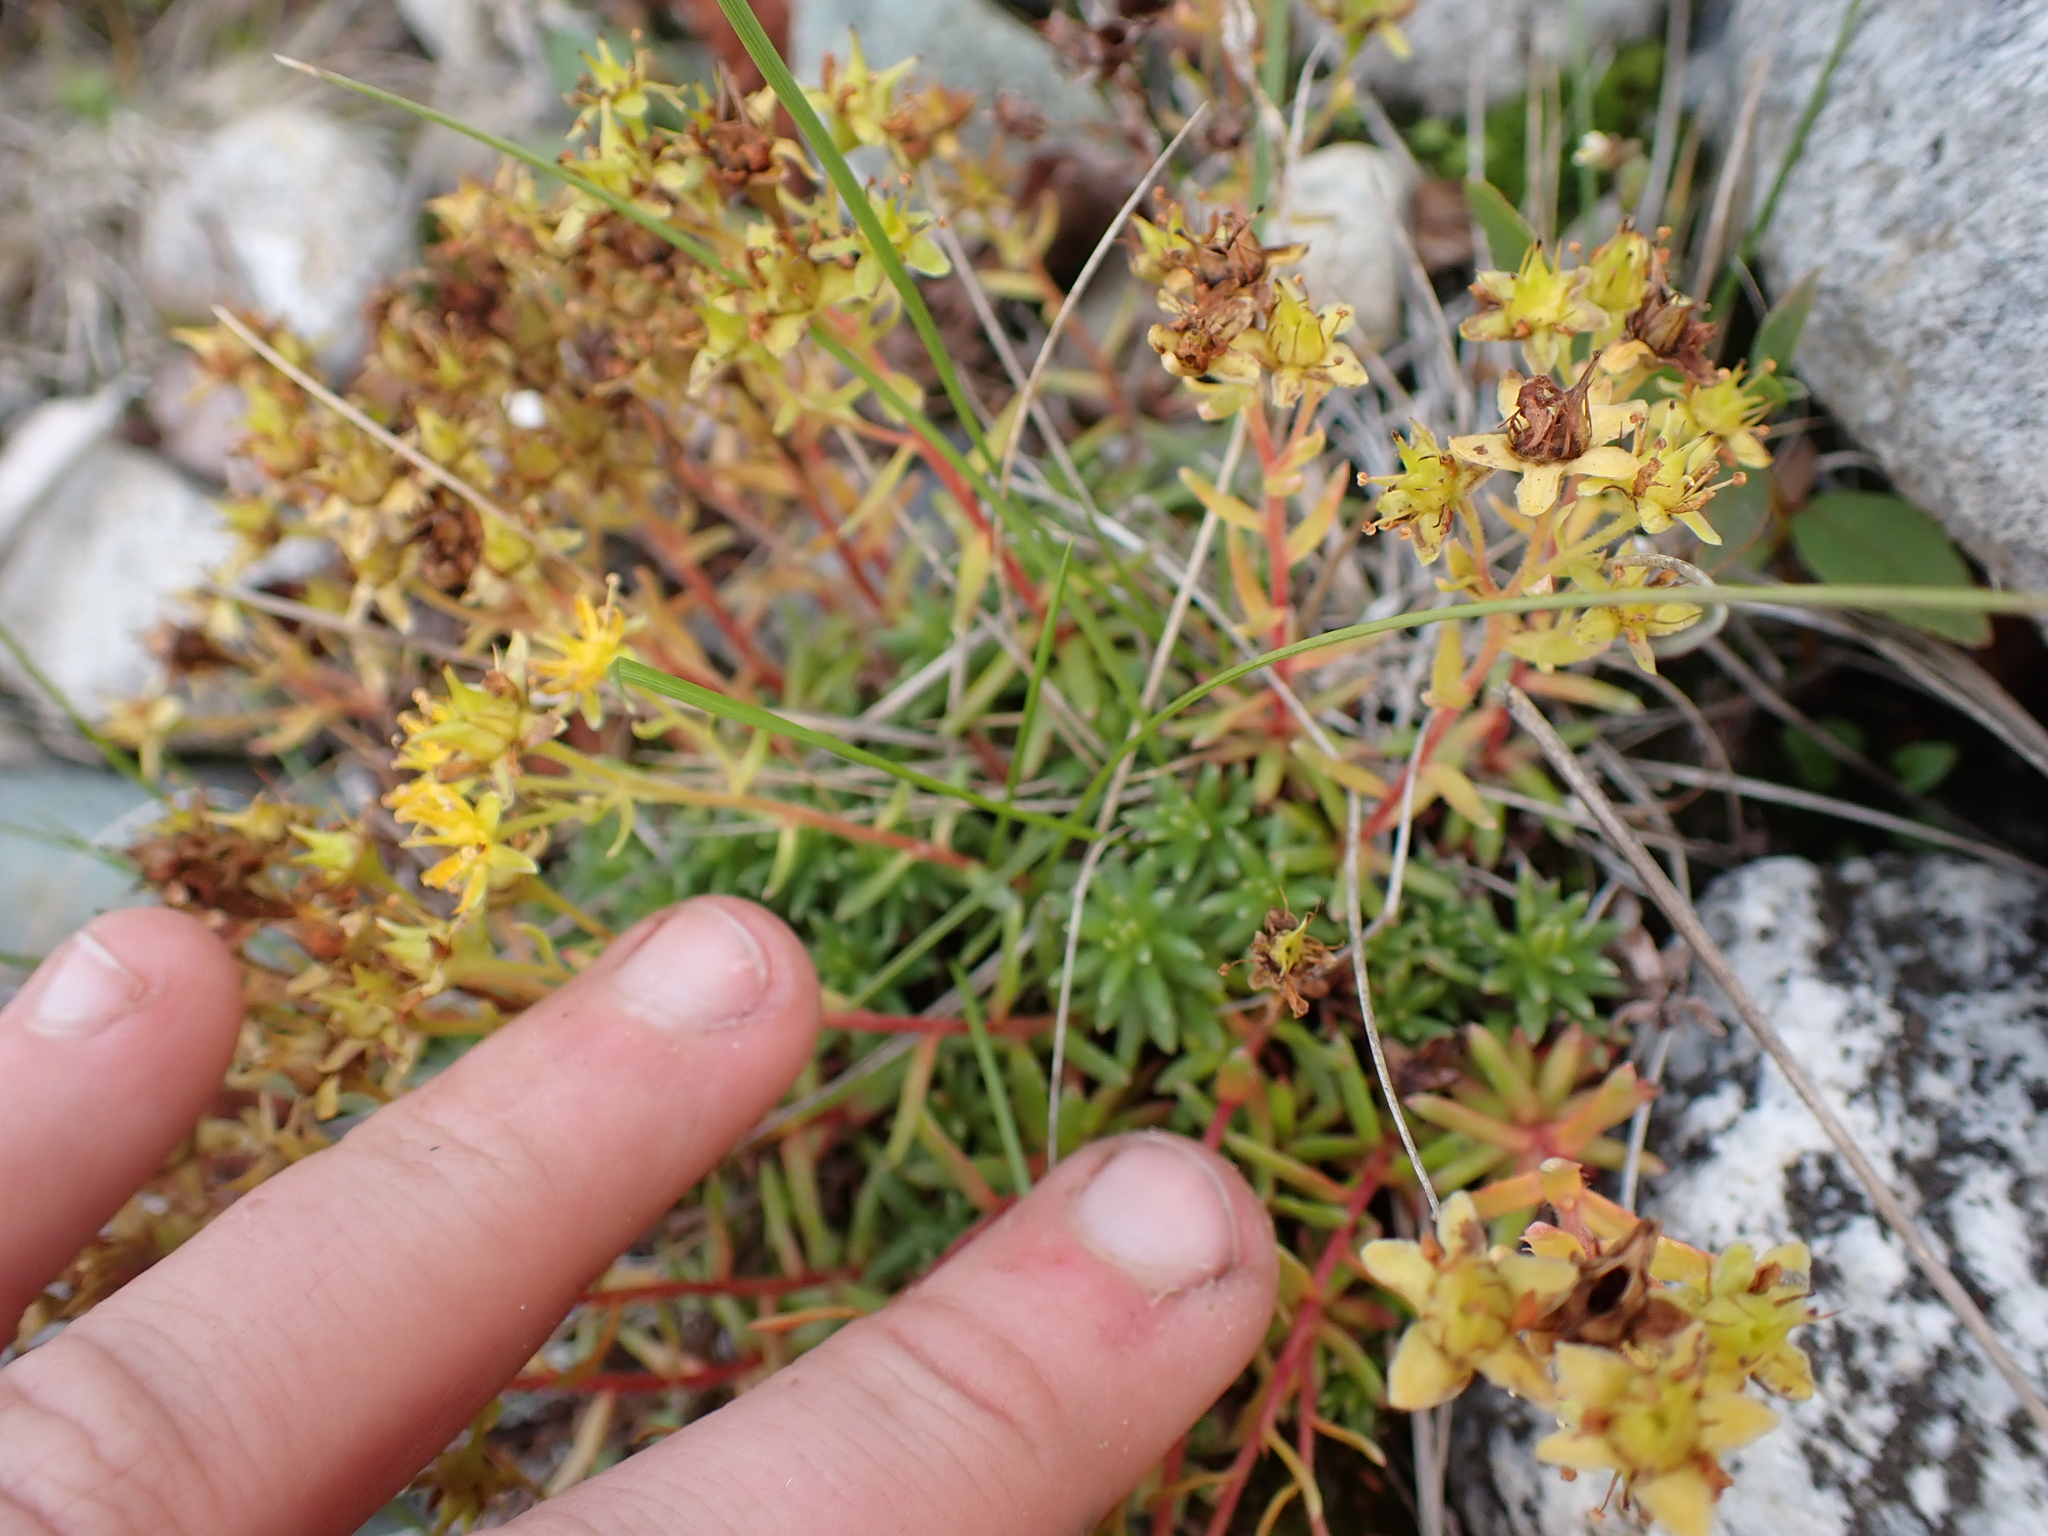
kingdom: Plantae
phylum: Tracheophyta
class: Magnoliopsida
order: Saxifragales
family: Saxifragaceae
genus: Saxifraga
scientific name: Saxifraga aizoides
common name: Yellow mountain saxifrage
